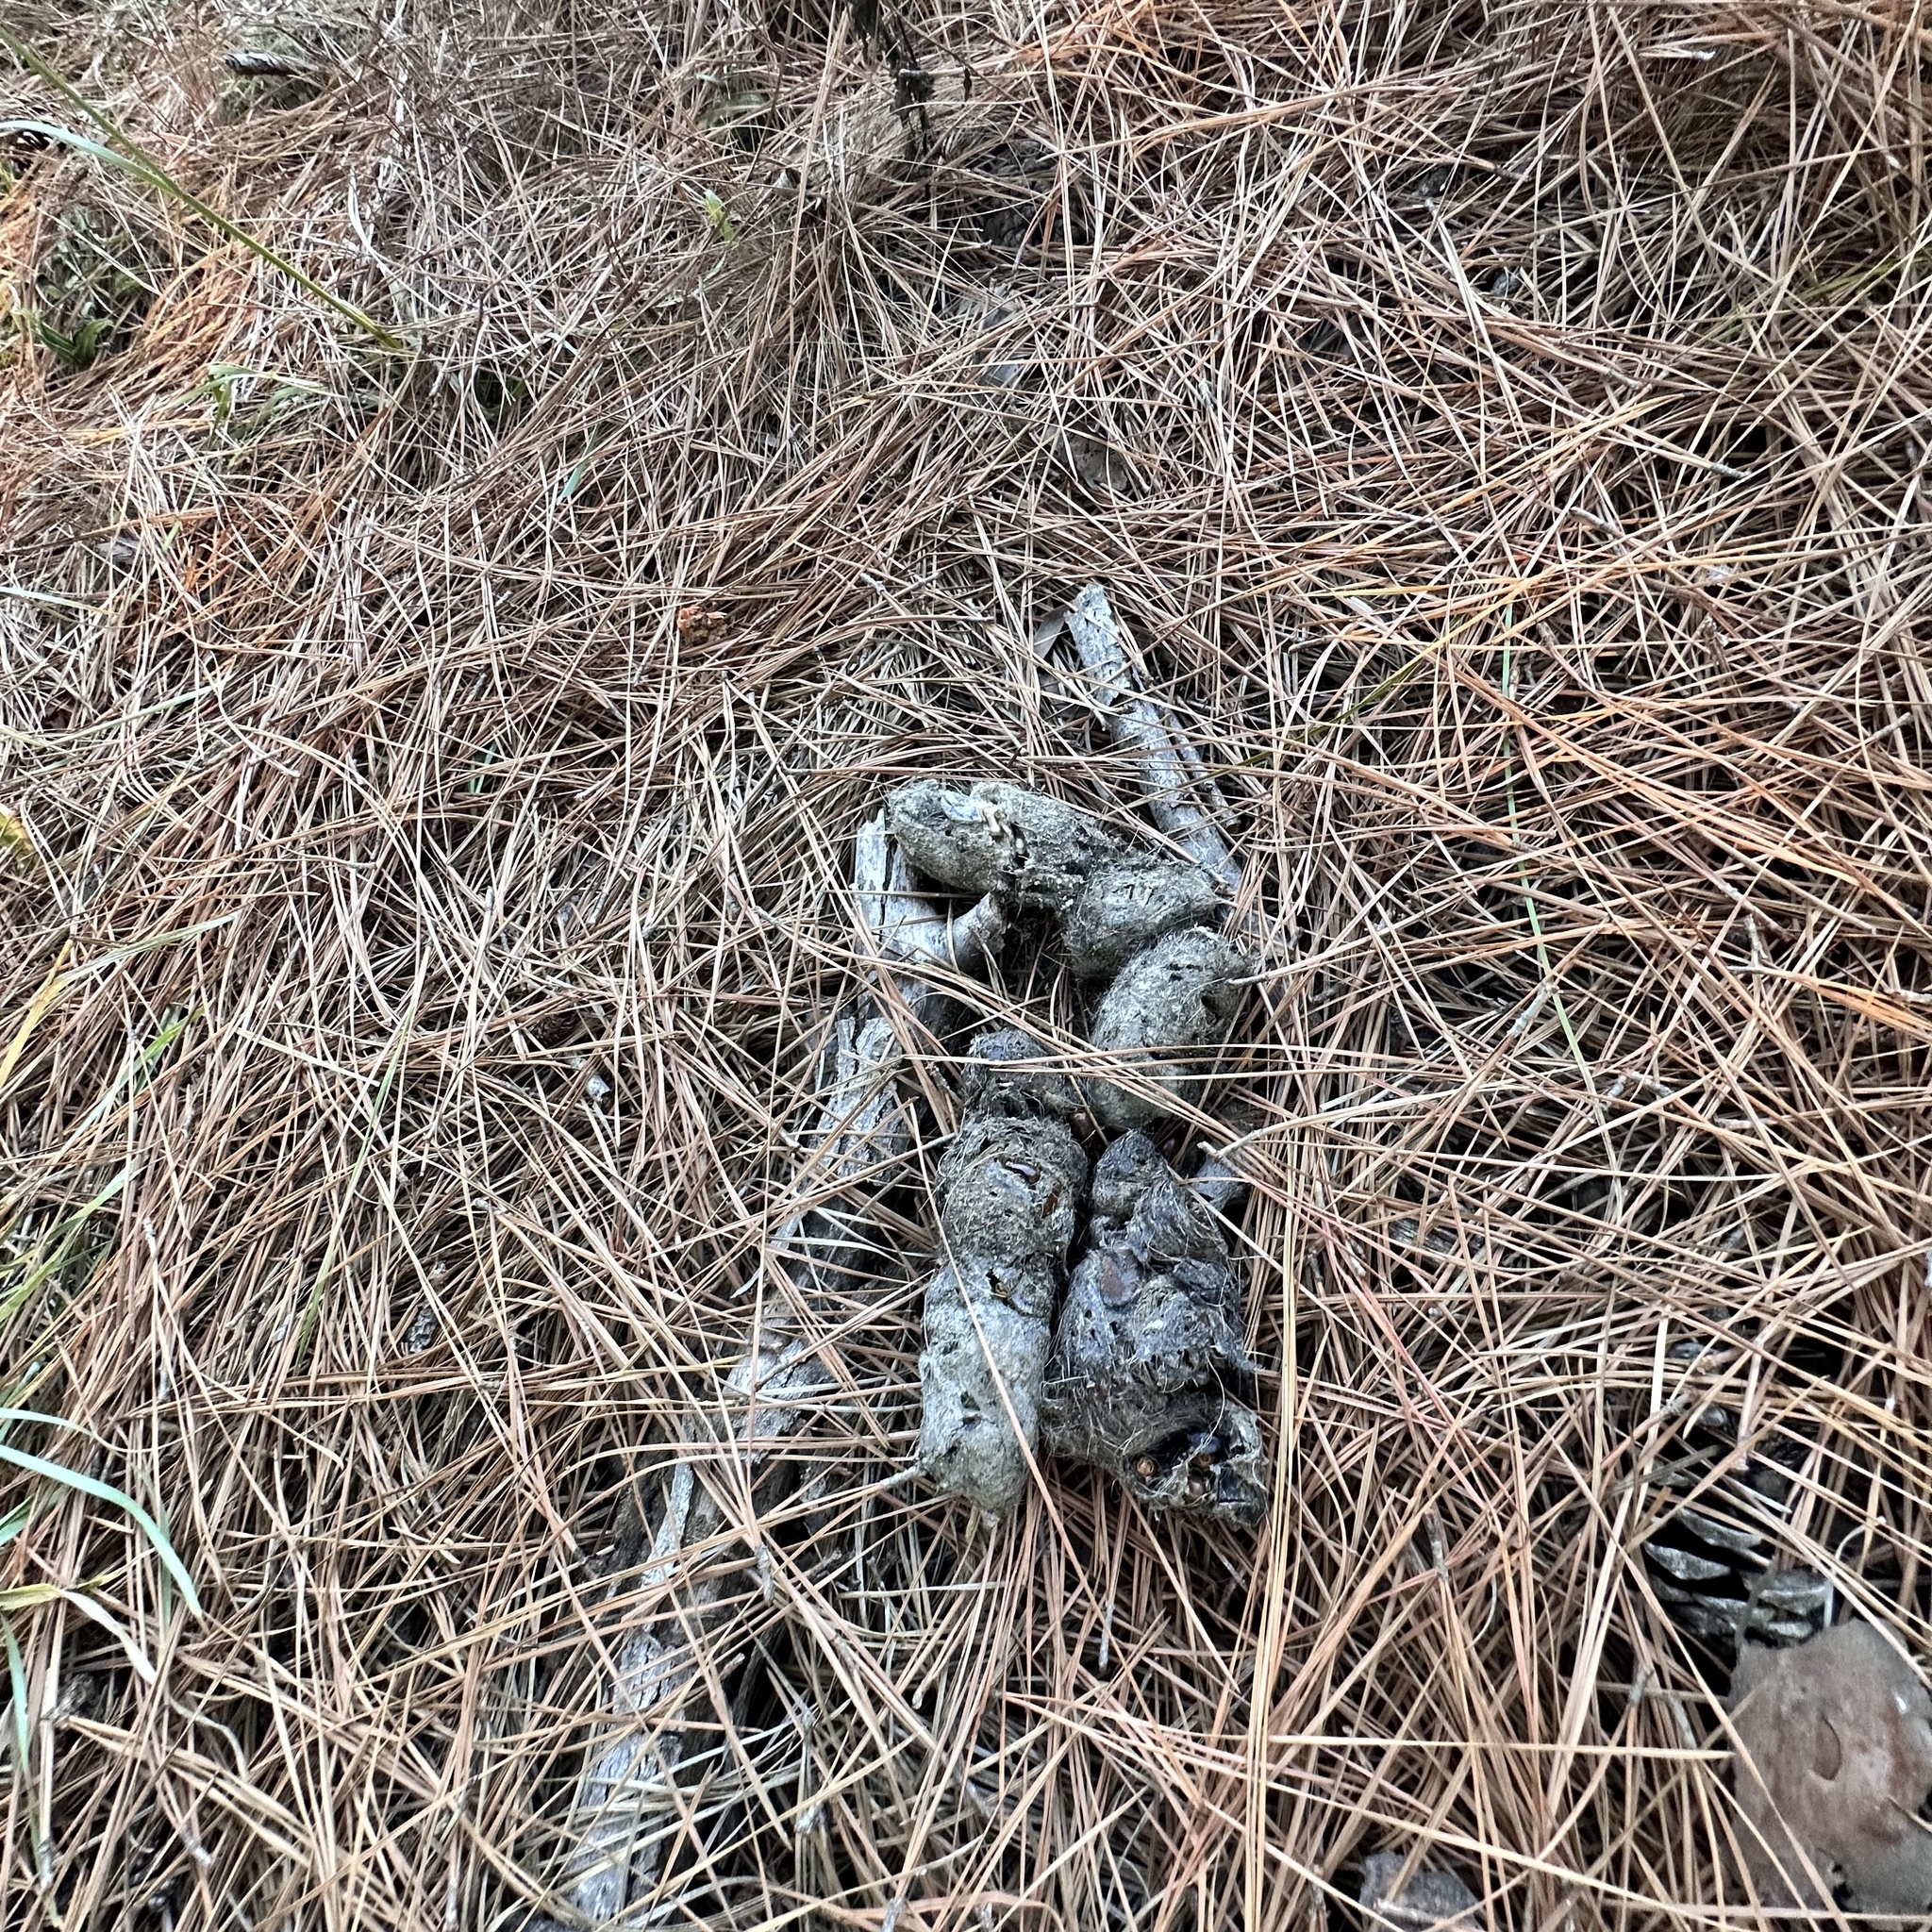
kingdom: Animalia
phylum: Chordata
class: Mammalia
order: Carnivora
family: Canidae
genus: Canis
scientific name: Canis latrans
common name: Coyote
